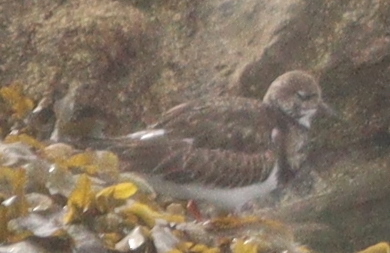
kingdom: Animalia
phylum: Chordata
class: Aves
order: Charadriiformes
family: Scolopacidae
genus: Arenaria
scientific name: Arenaria interpres
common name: Ruddy turnstone
